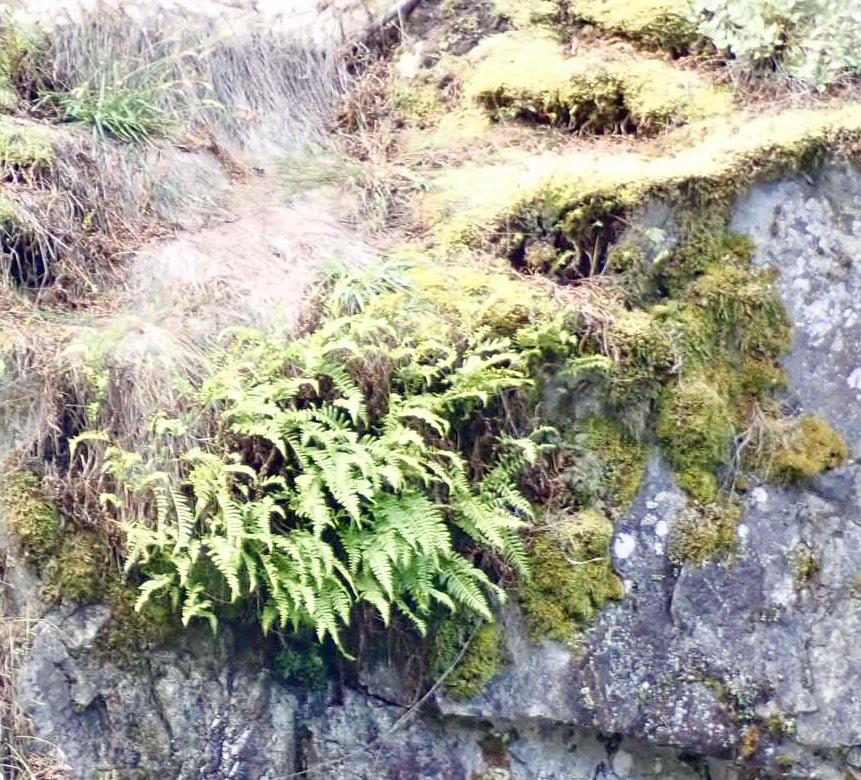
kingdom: Plantae
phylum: Tracheophyta
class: Polypodiopsida
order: Polypodiales
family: Polypodiaceae
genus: Polypodium
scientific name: Polypodium glycyrrhiza
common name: Licorice fern
